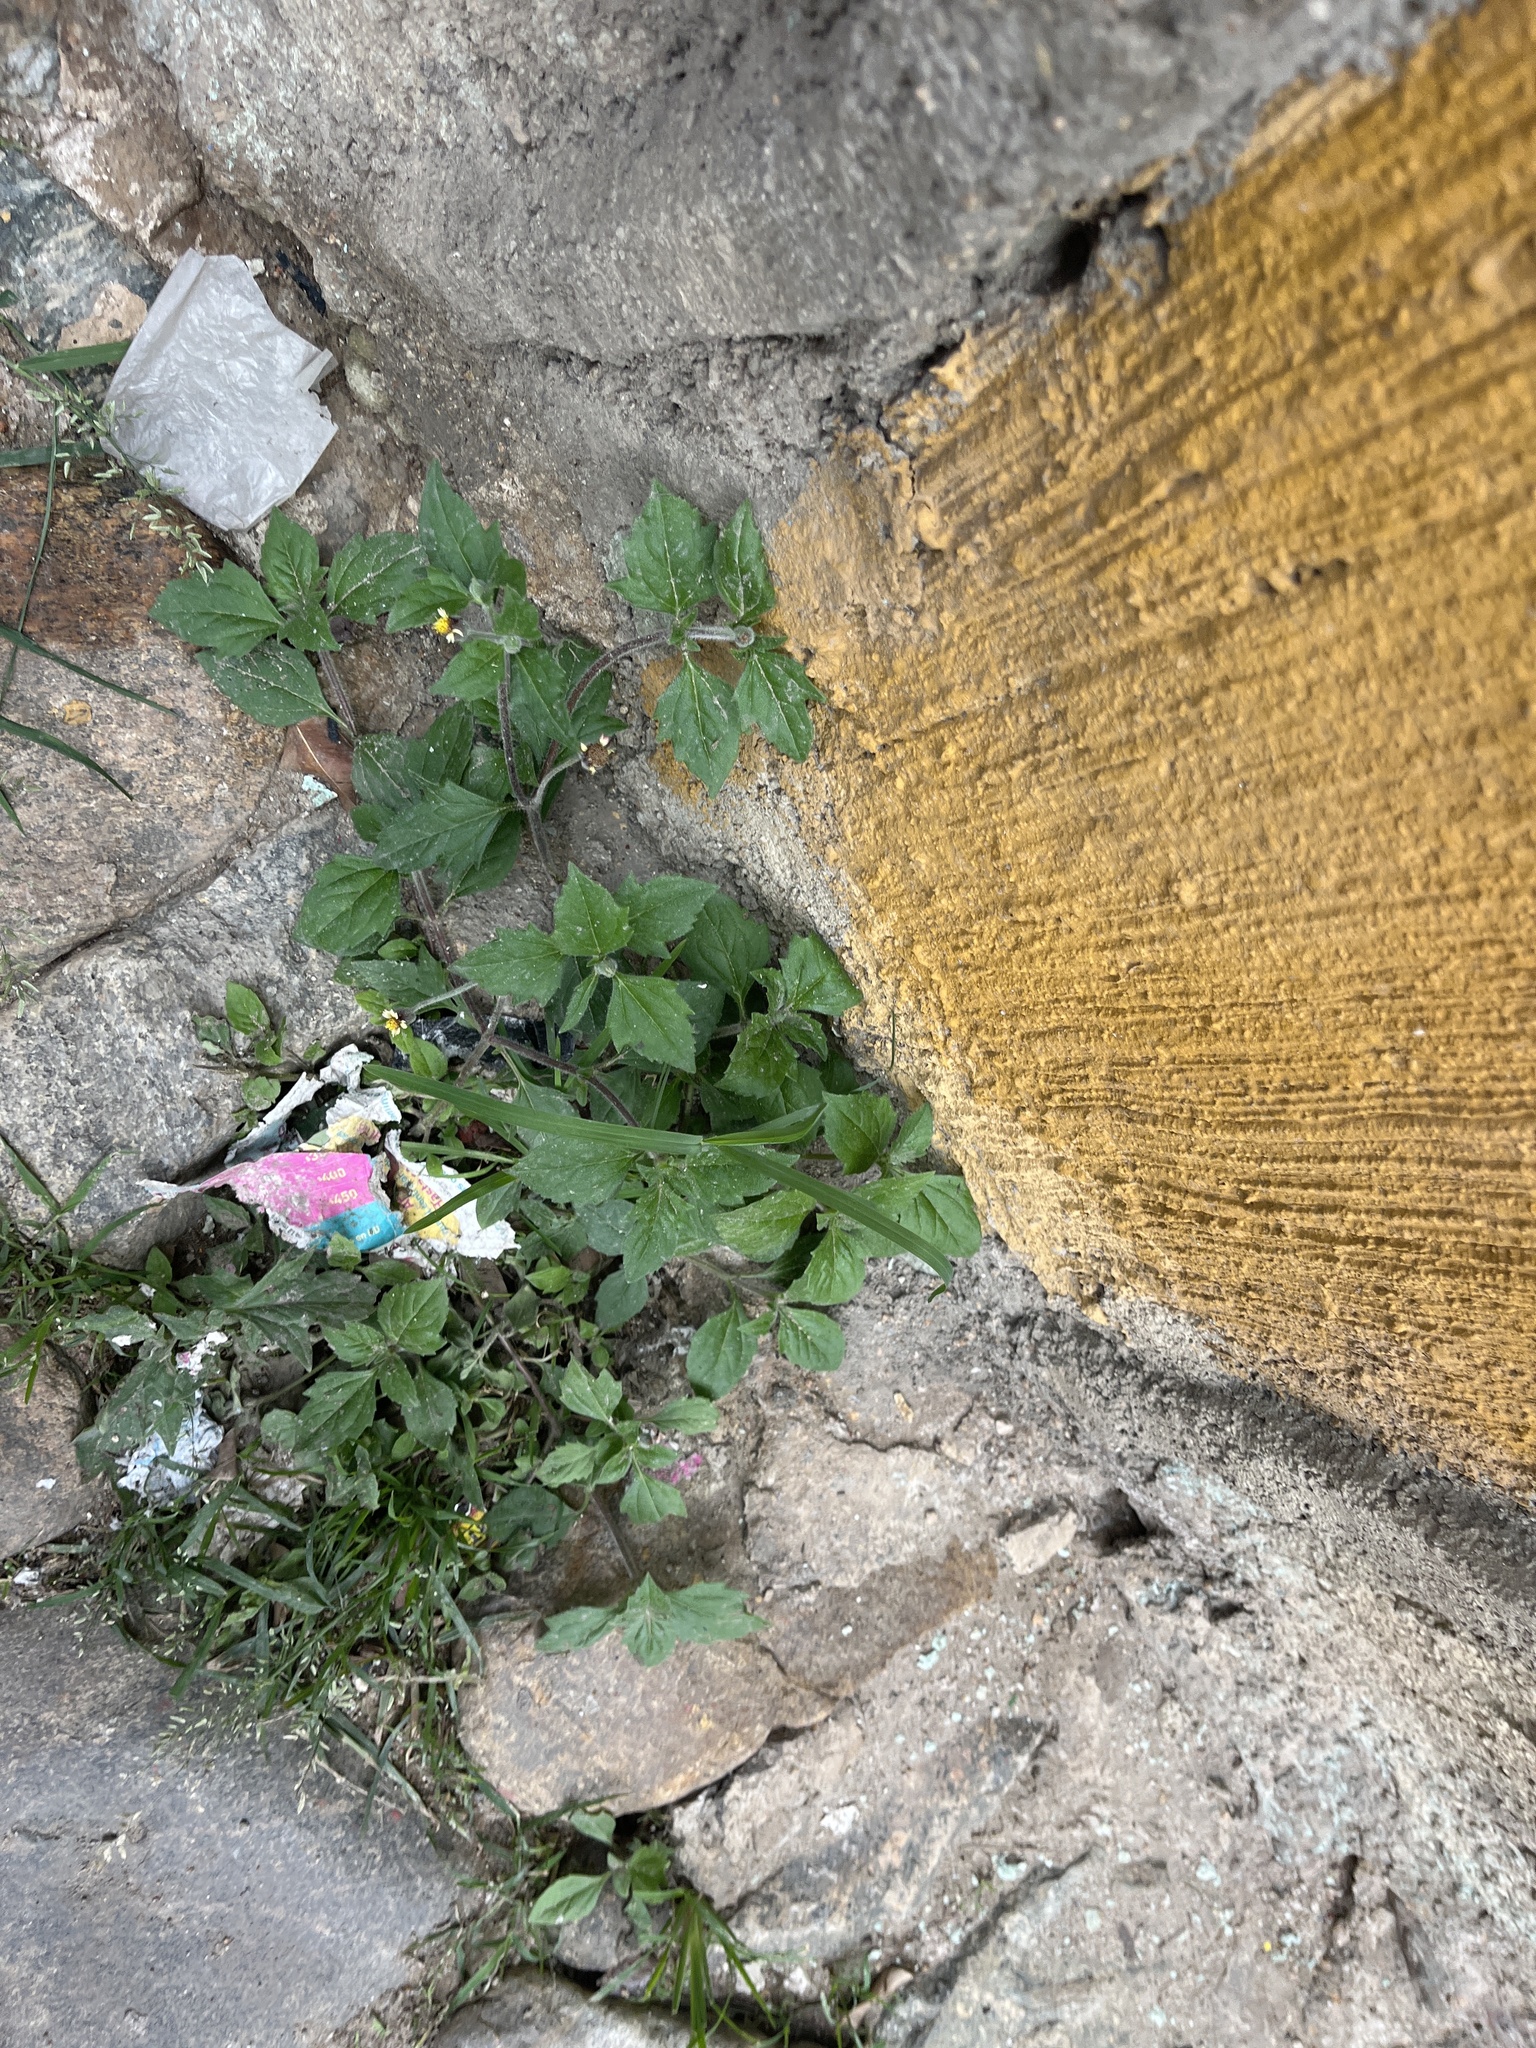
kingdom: Plantae
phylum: Tracheophyta
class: Magnoliopsida
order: Asterales
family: Asteraceae
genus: Tridax
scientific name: Tridax procumbens
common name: Coatbuttons
